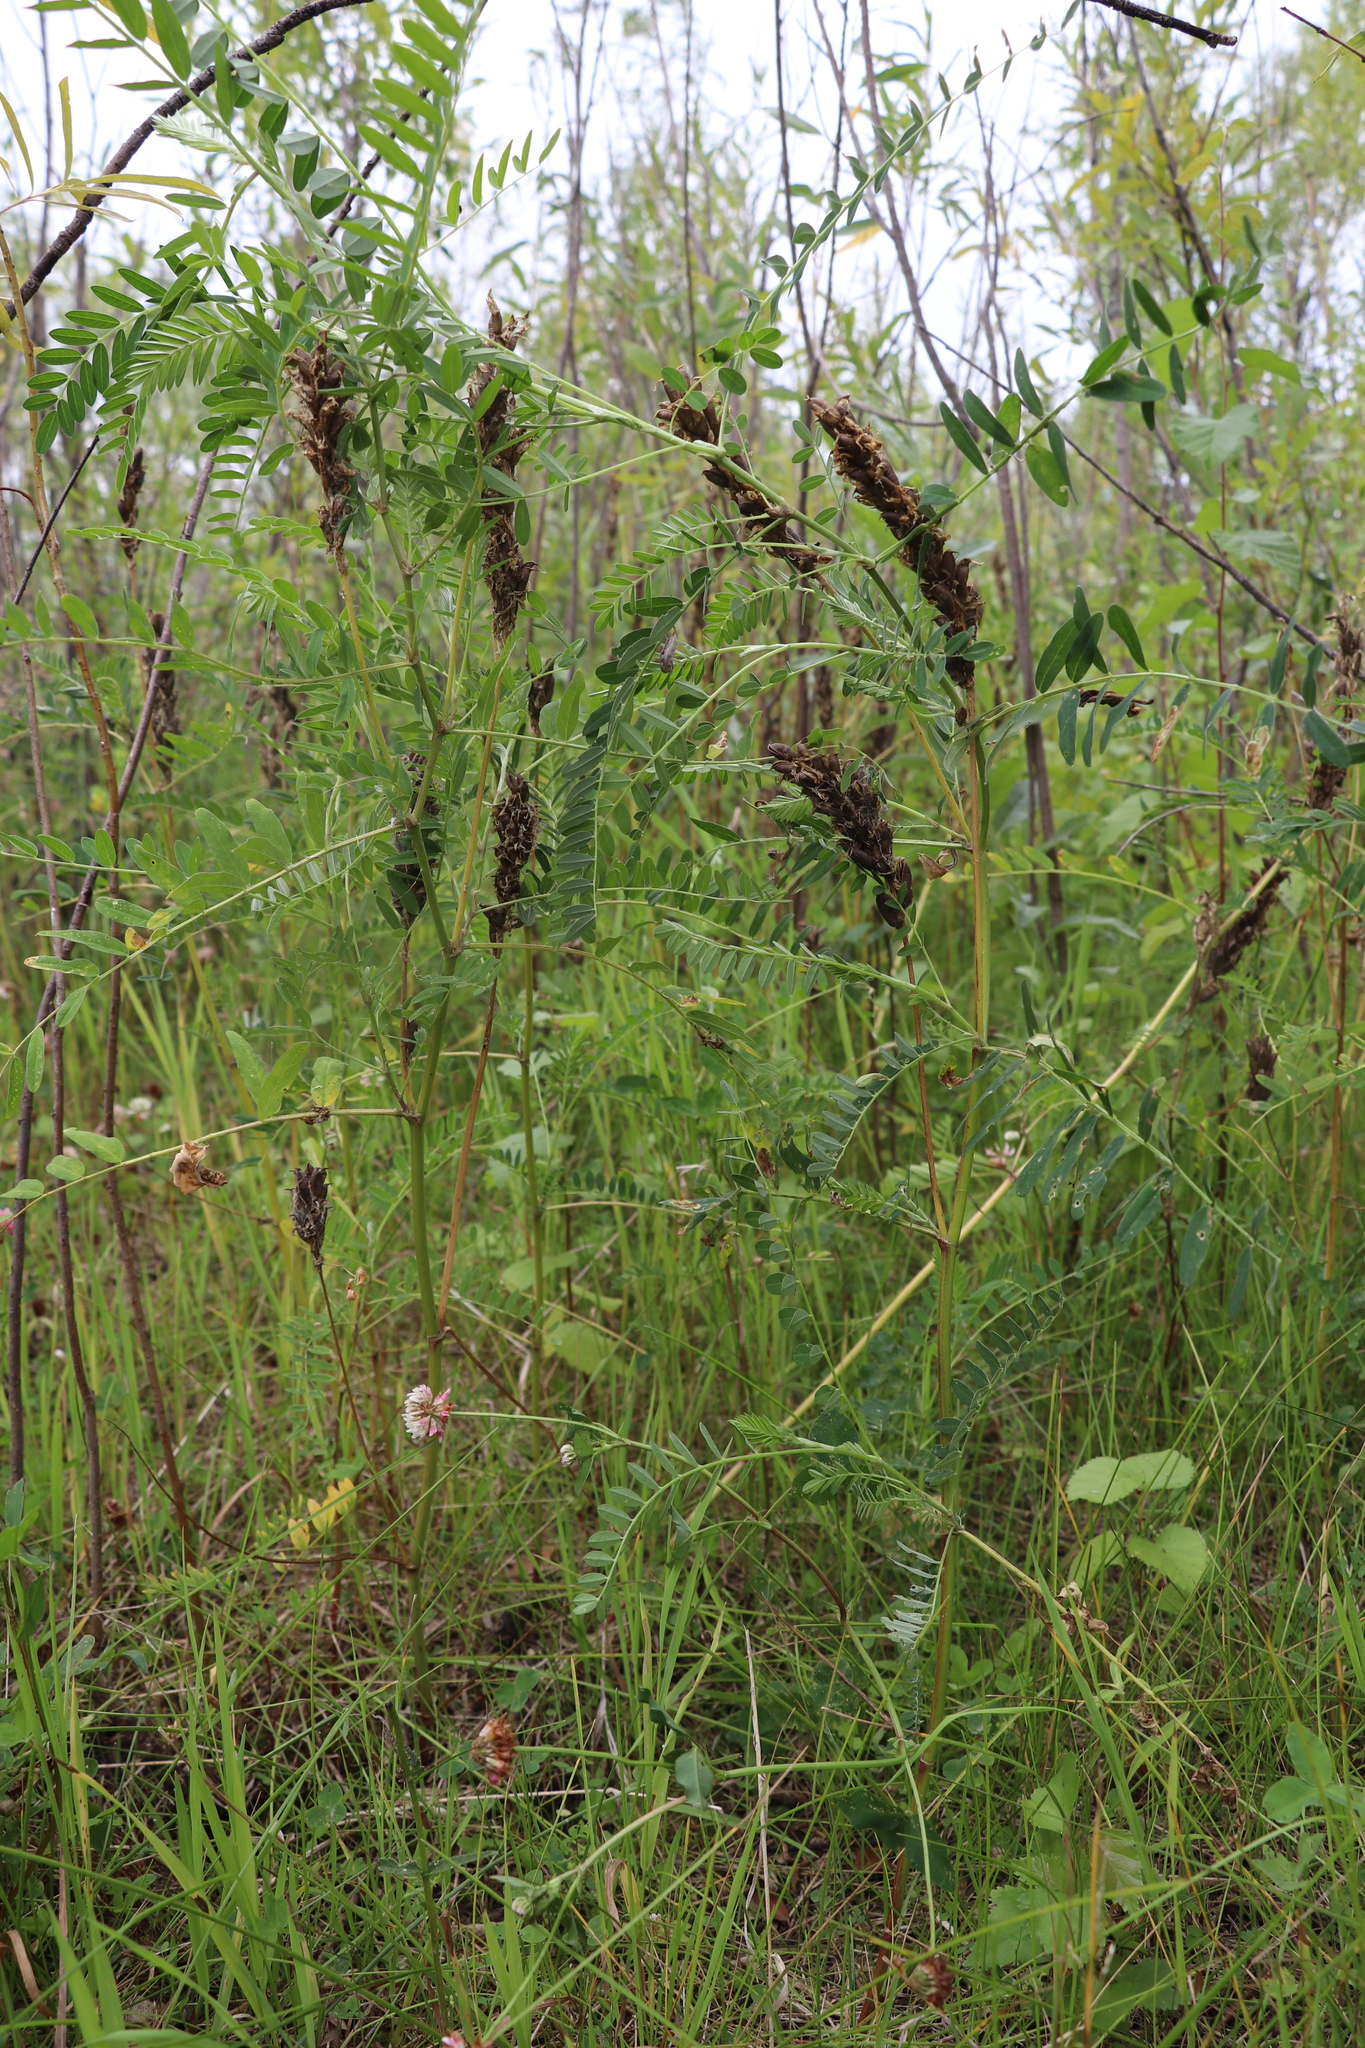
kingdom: Plantae
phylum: Tracheophyta
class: Magnoliopsida
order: Fabales
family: Fabaceae
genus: Astragalus
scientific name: Astragalus uliginosus
